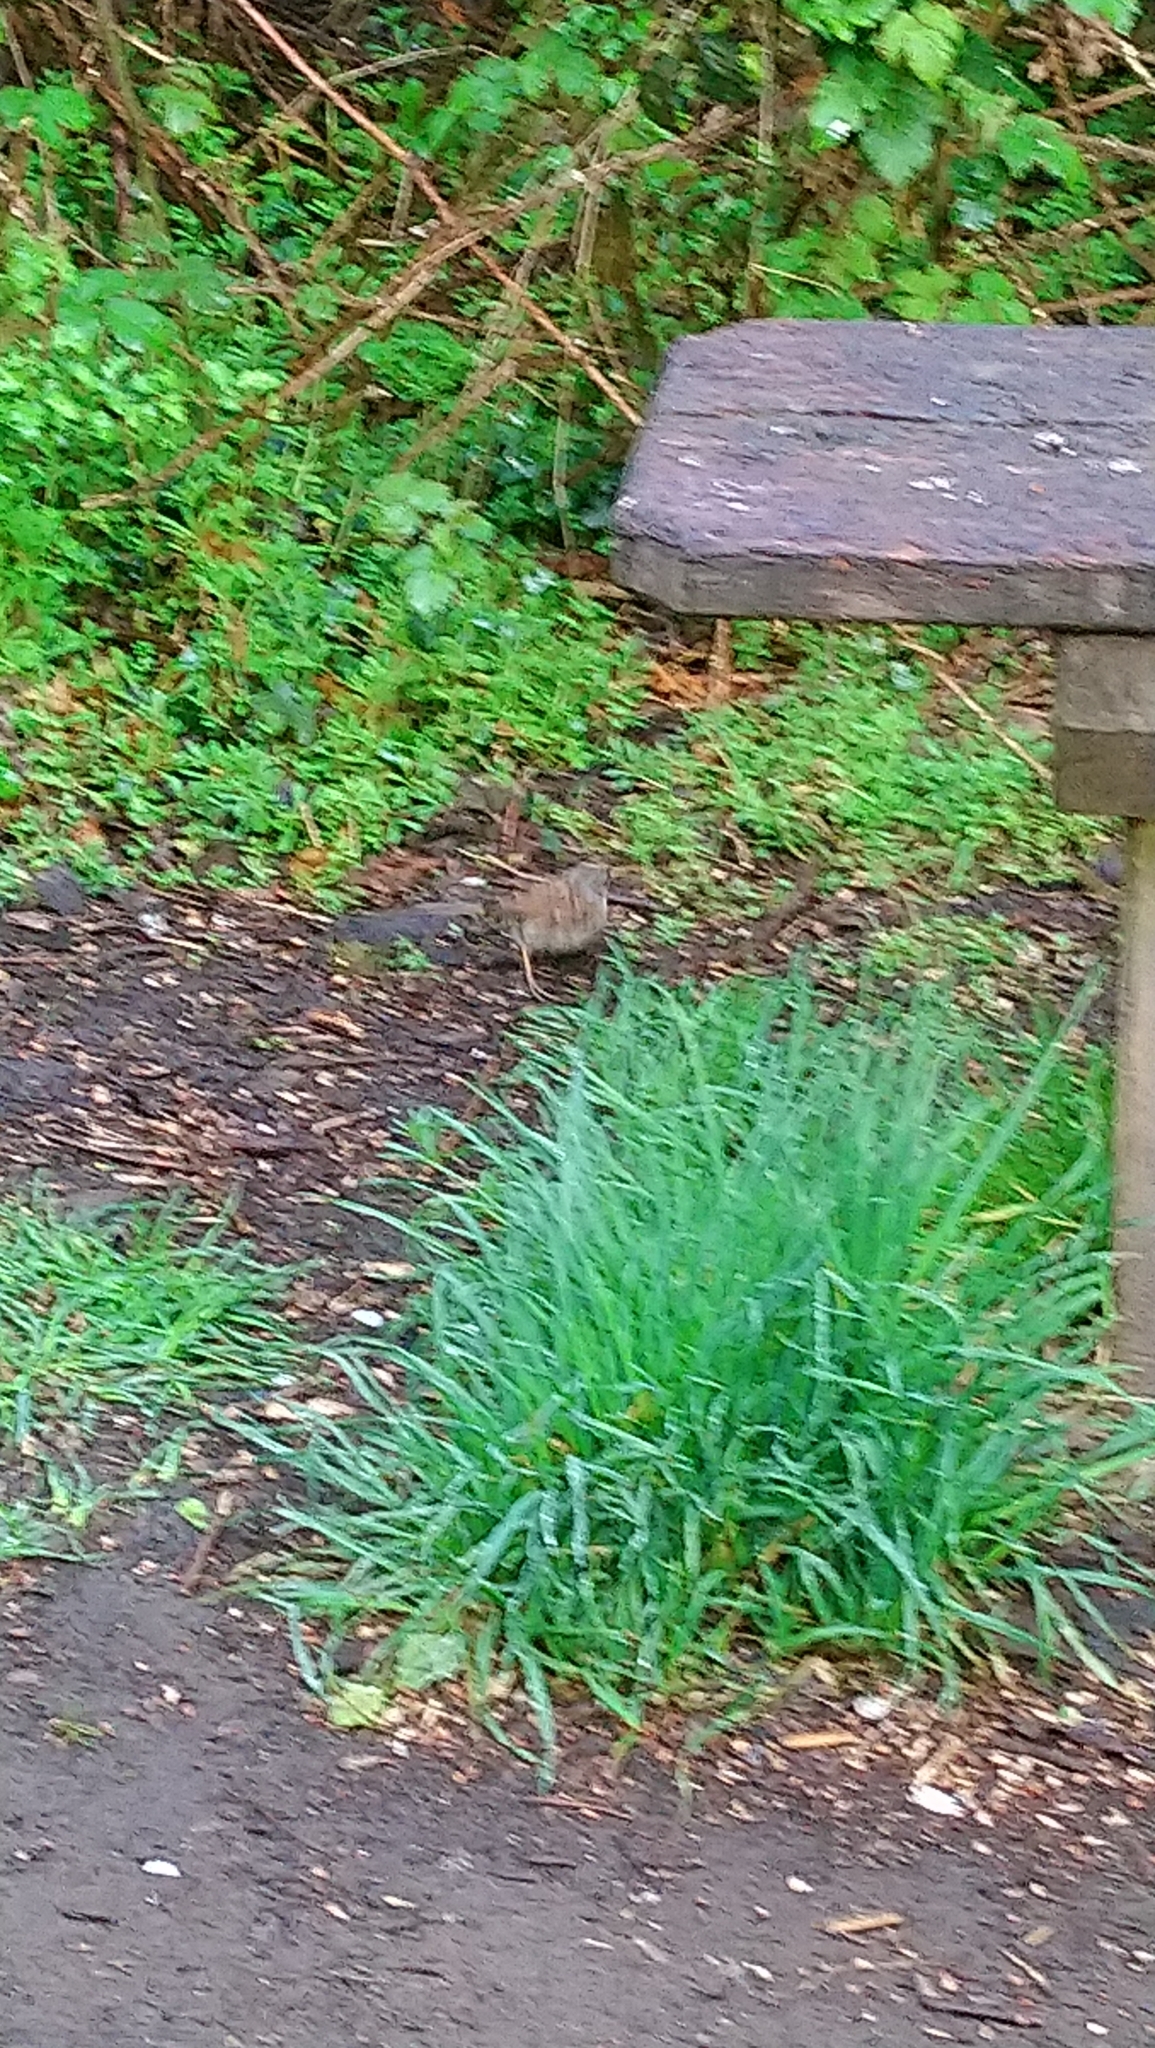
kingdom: Animalia
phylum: Chordata
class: Aves
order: Passeriformes
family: Prunellidae
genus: Prunella
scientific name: Prunella modularis
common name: Dunnock
